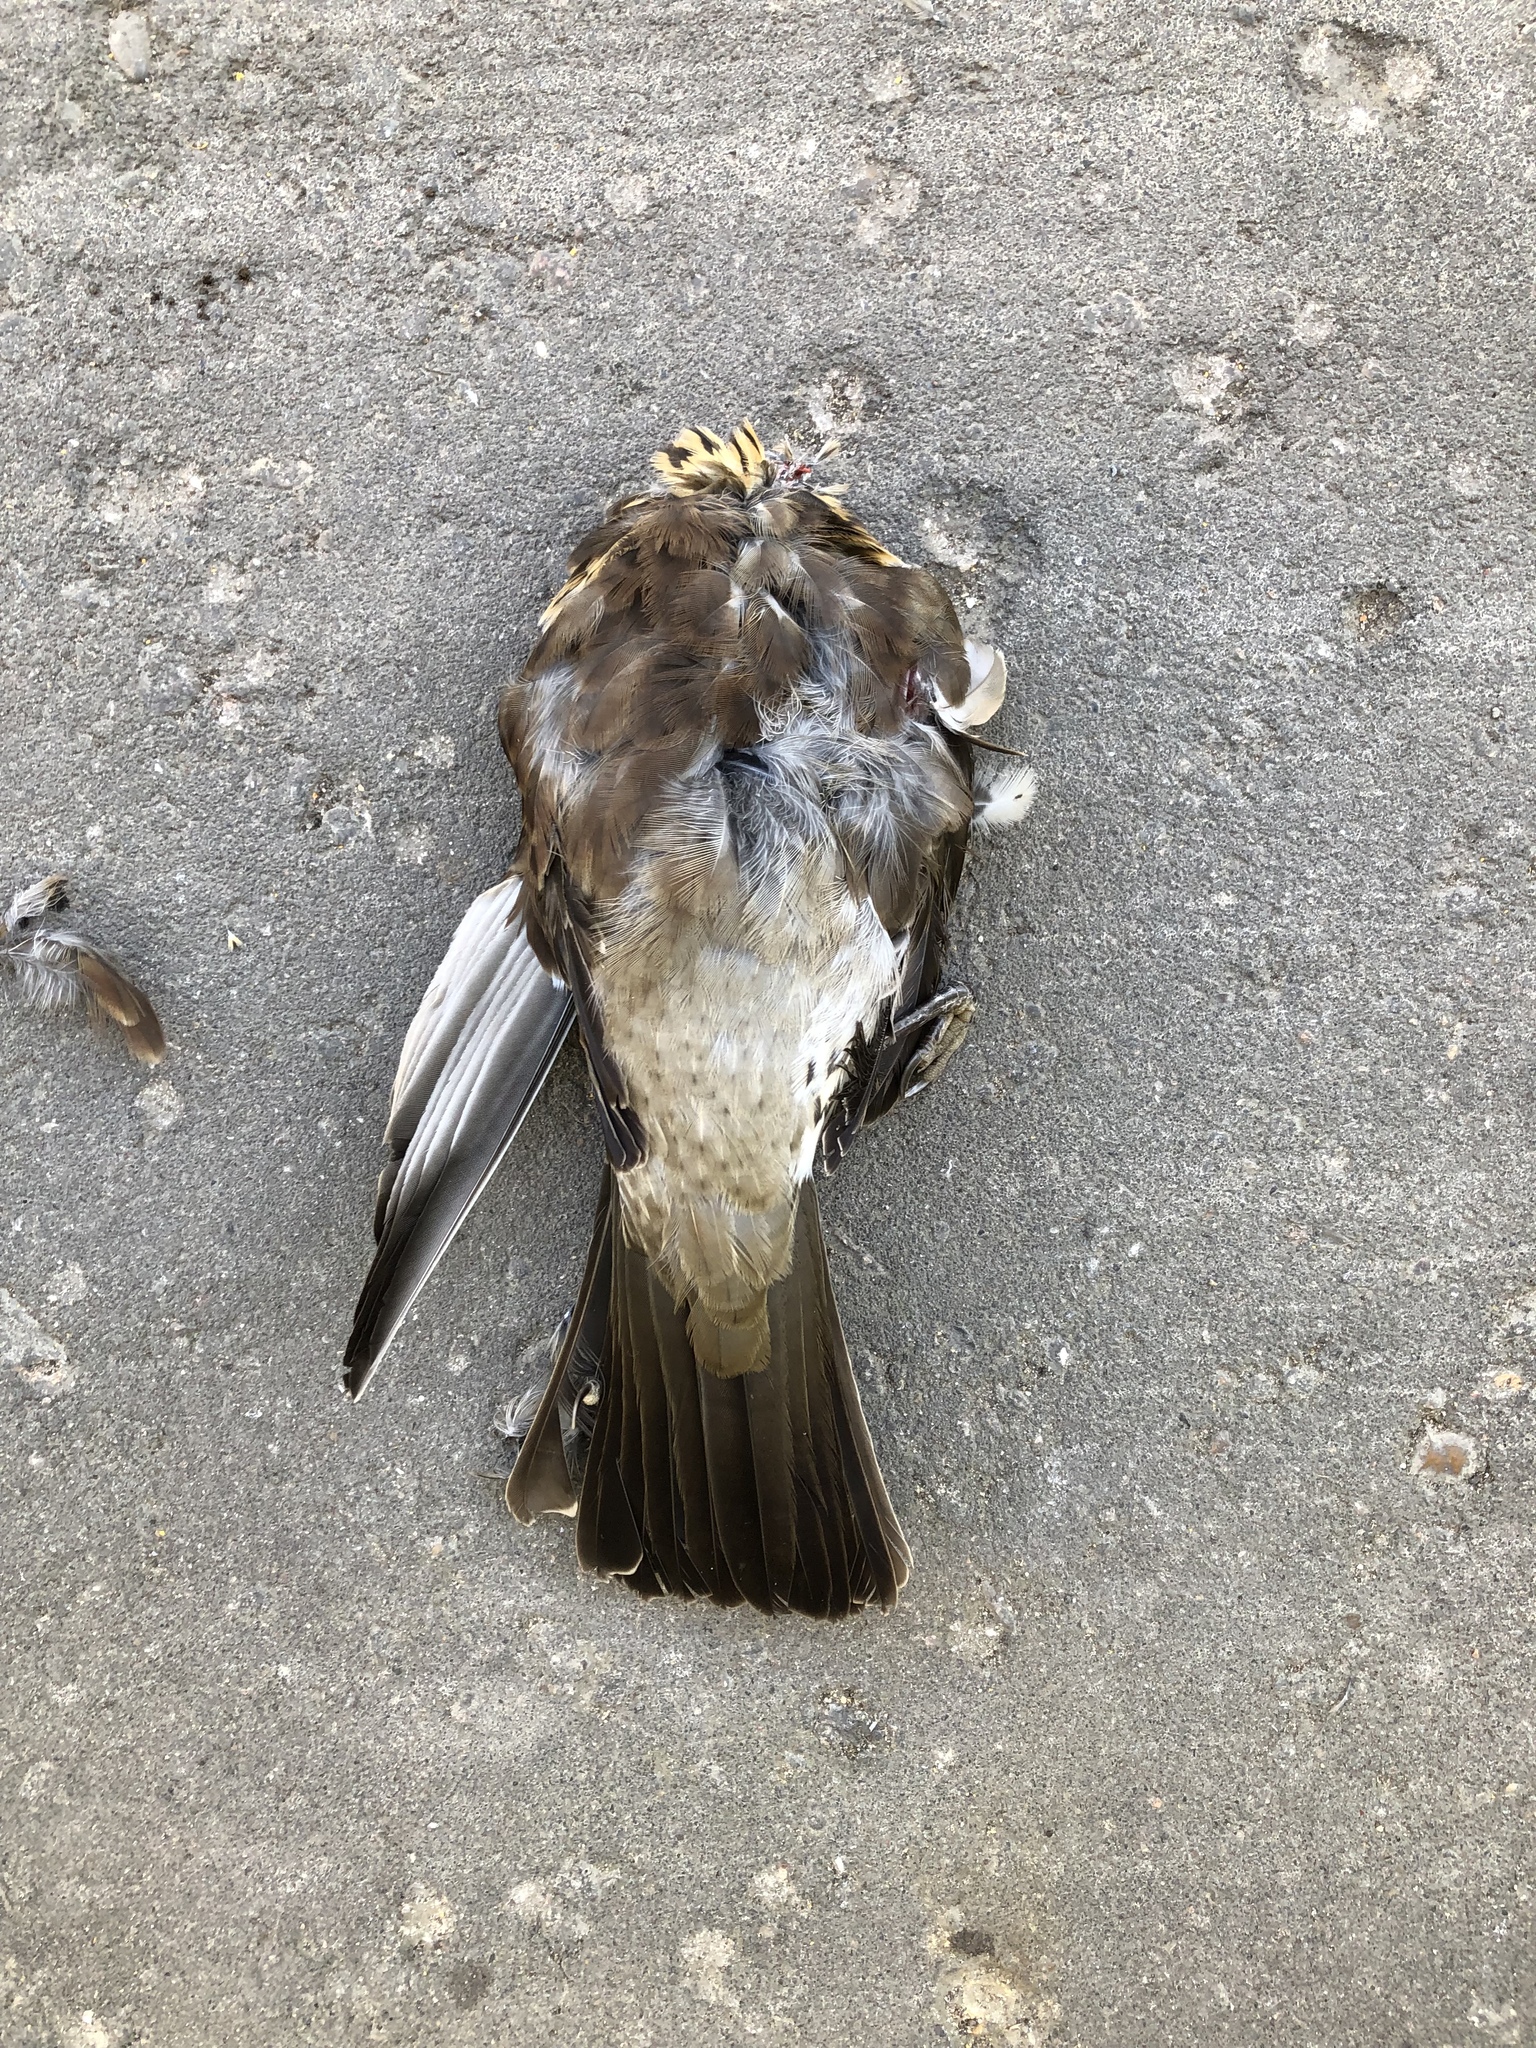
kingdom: Animalia
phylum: Chordata
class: Aves
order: Passeriformes
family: Turdidae
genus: Turdus
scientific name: Turdus pilaris
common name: Fieldfare
